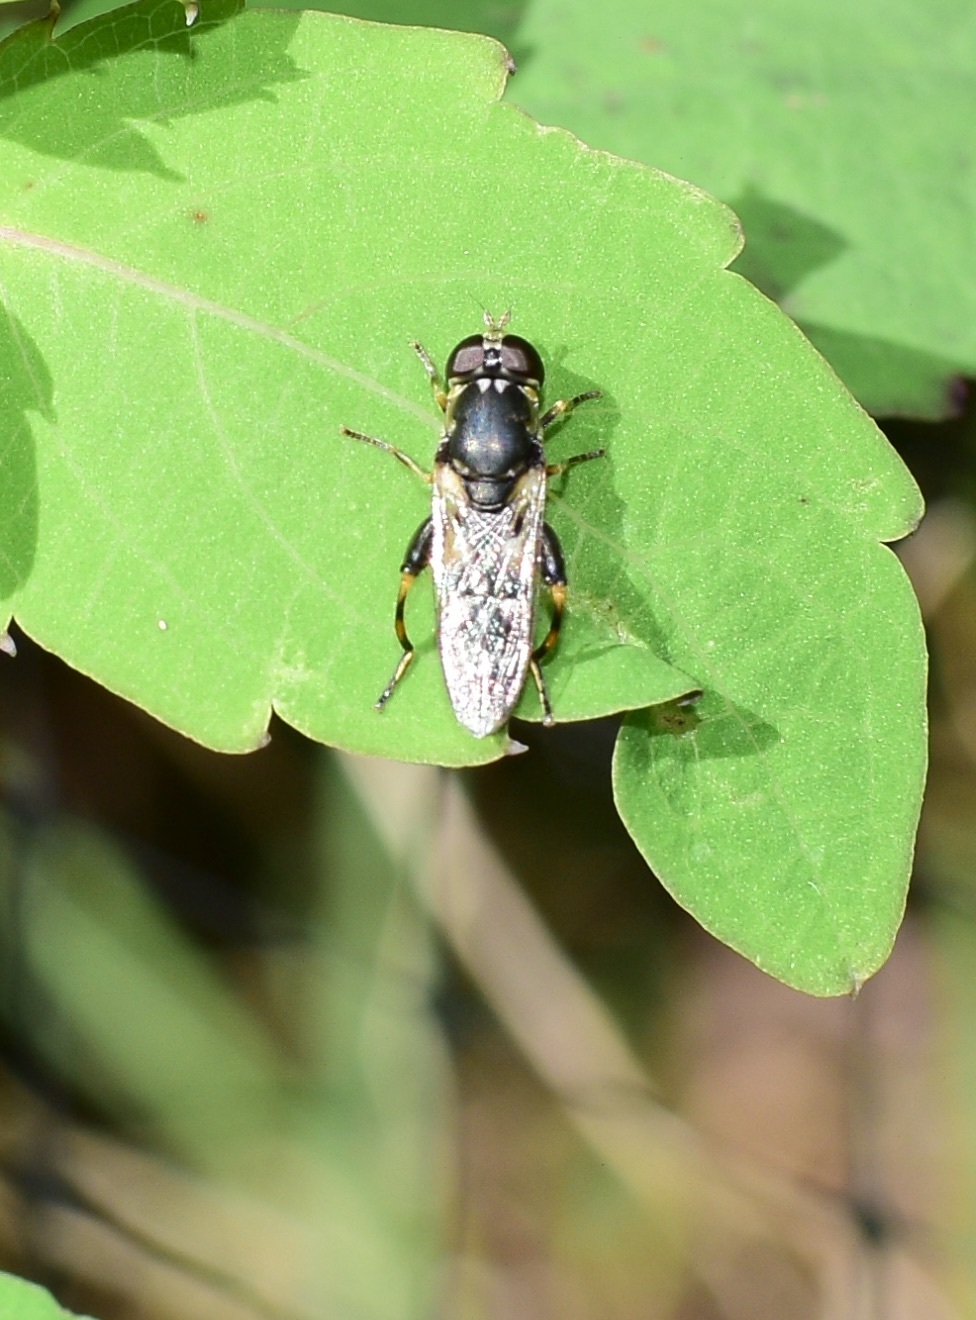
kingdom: Animalia
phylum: Arthropoda
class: Insecta
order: Diptera
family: Syrphidae
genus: Syritta
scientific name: Syritta pipiens
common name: Hover fly
